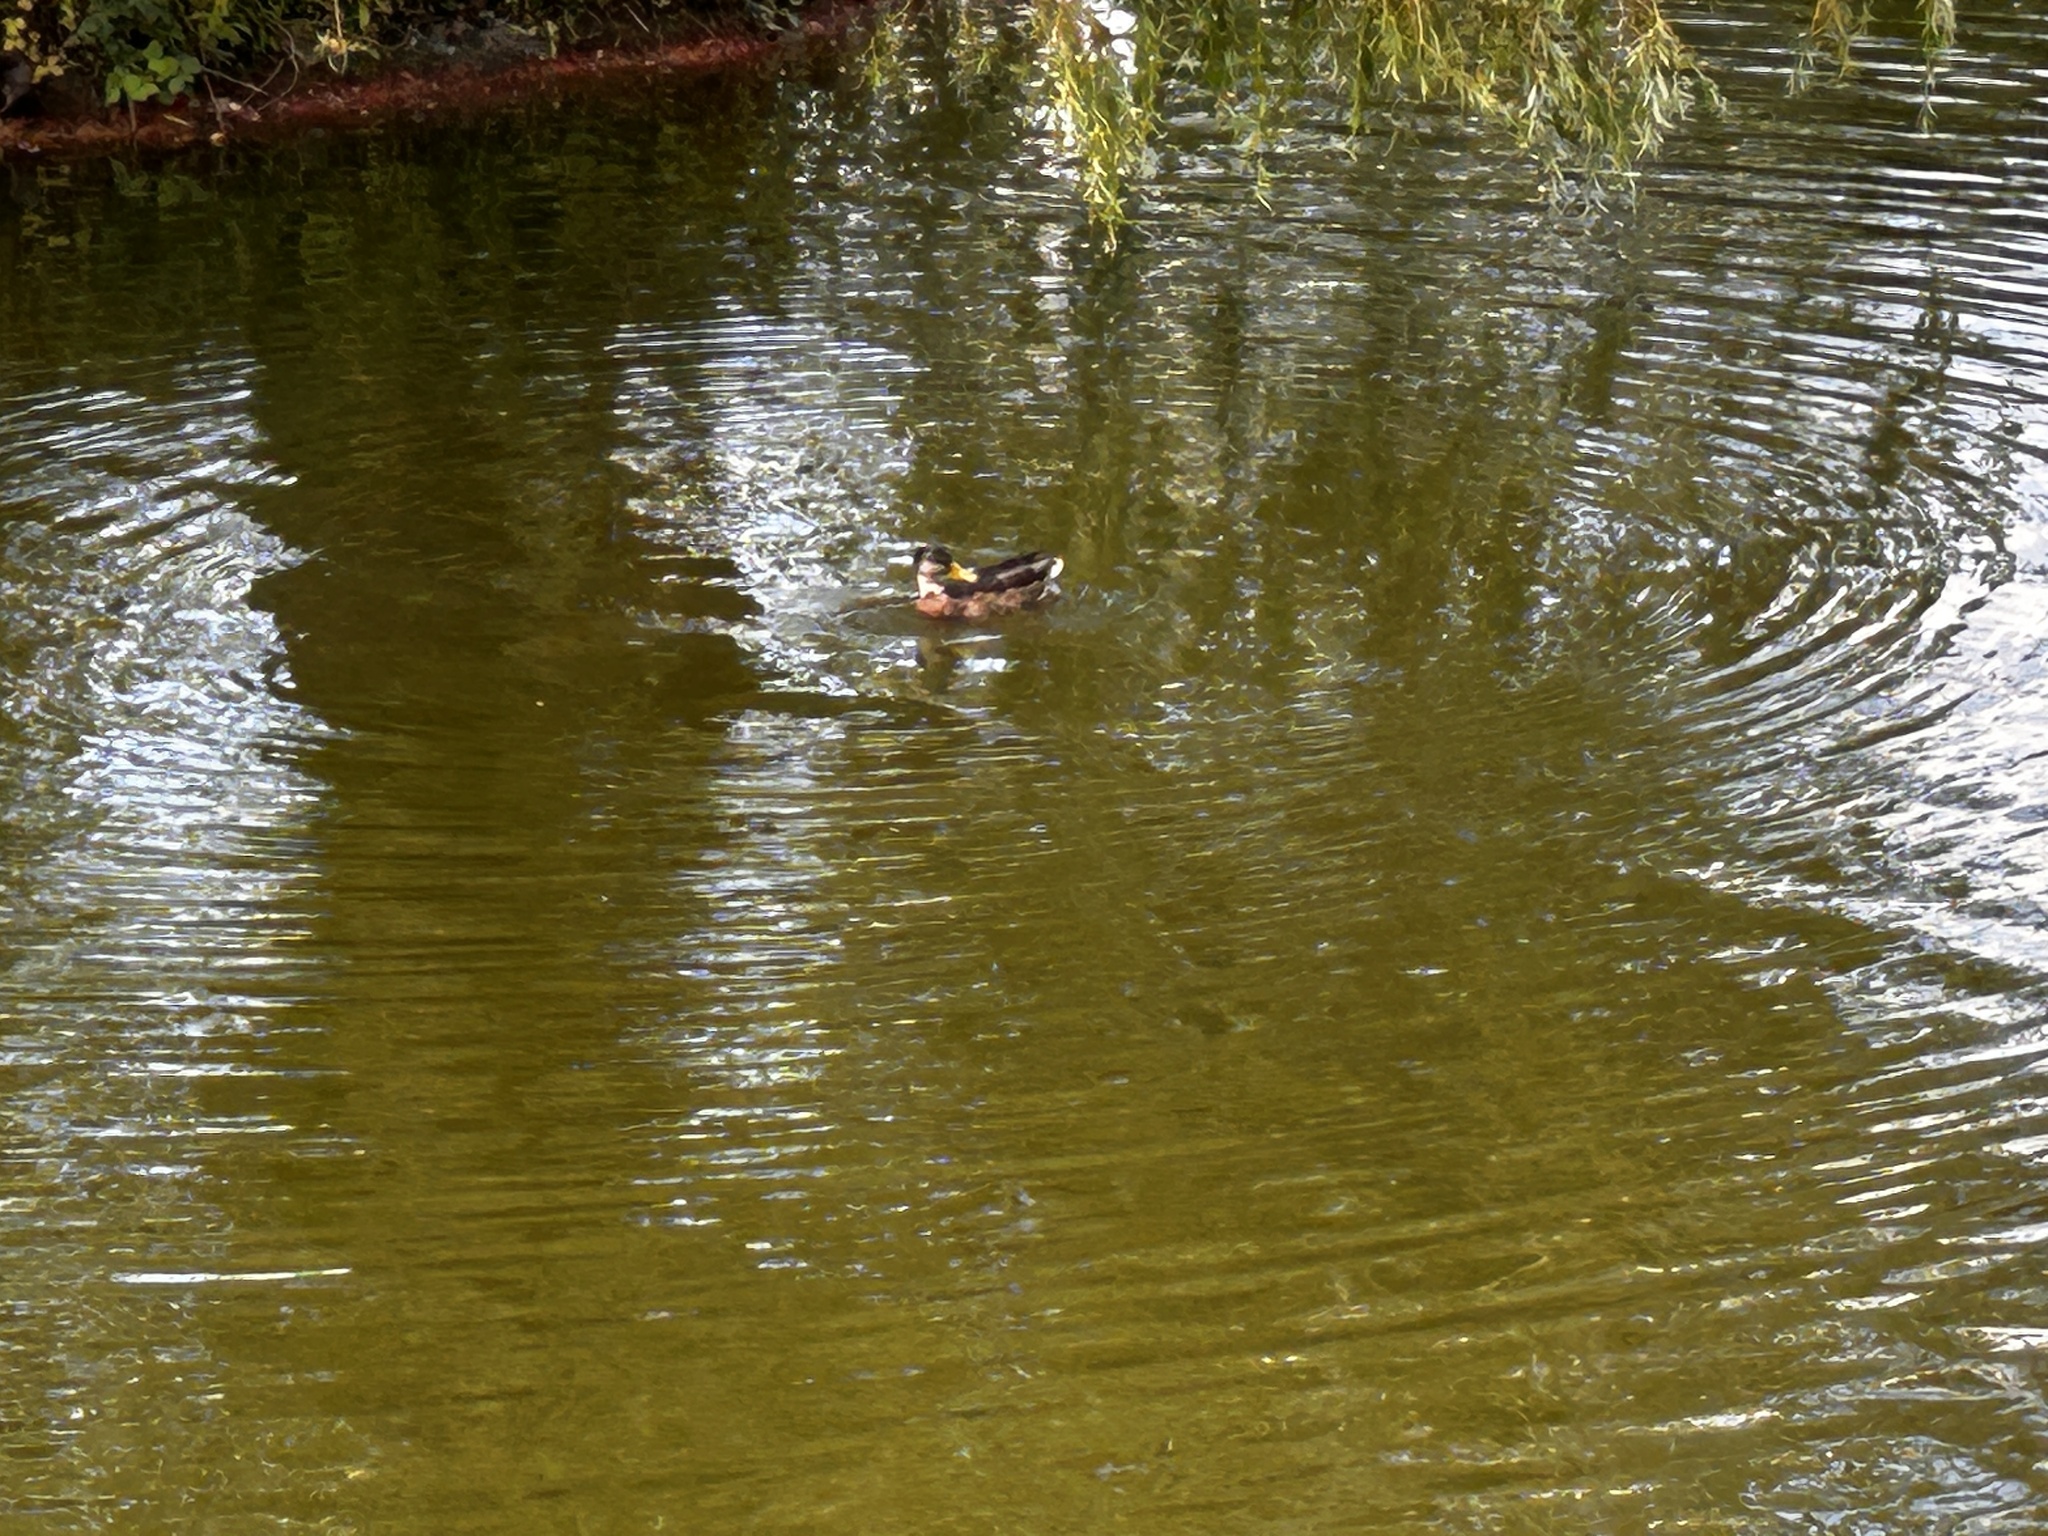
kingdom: Animalia
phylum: Chordata
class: Aves
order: Anseriformes
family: Anatidae
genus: Anas
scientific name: Anas platyrhynchos
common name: Mallard
